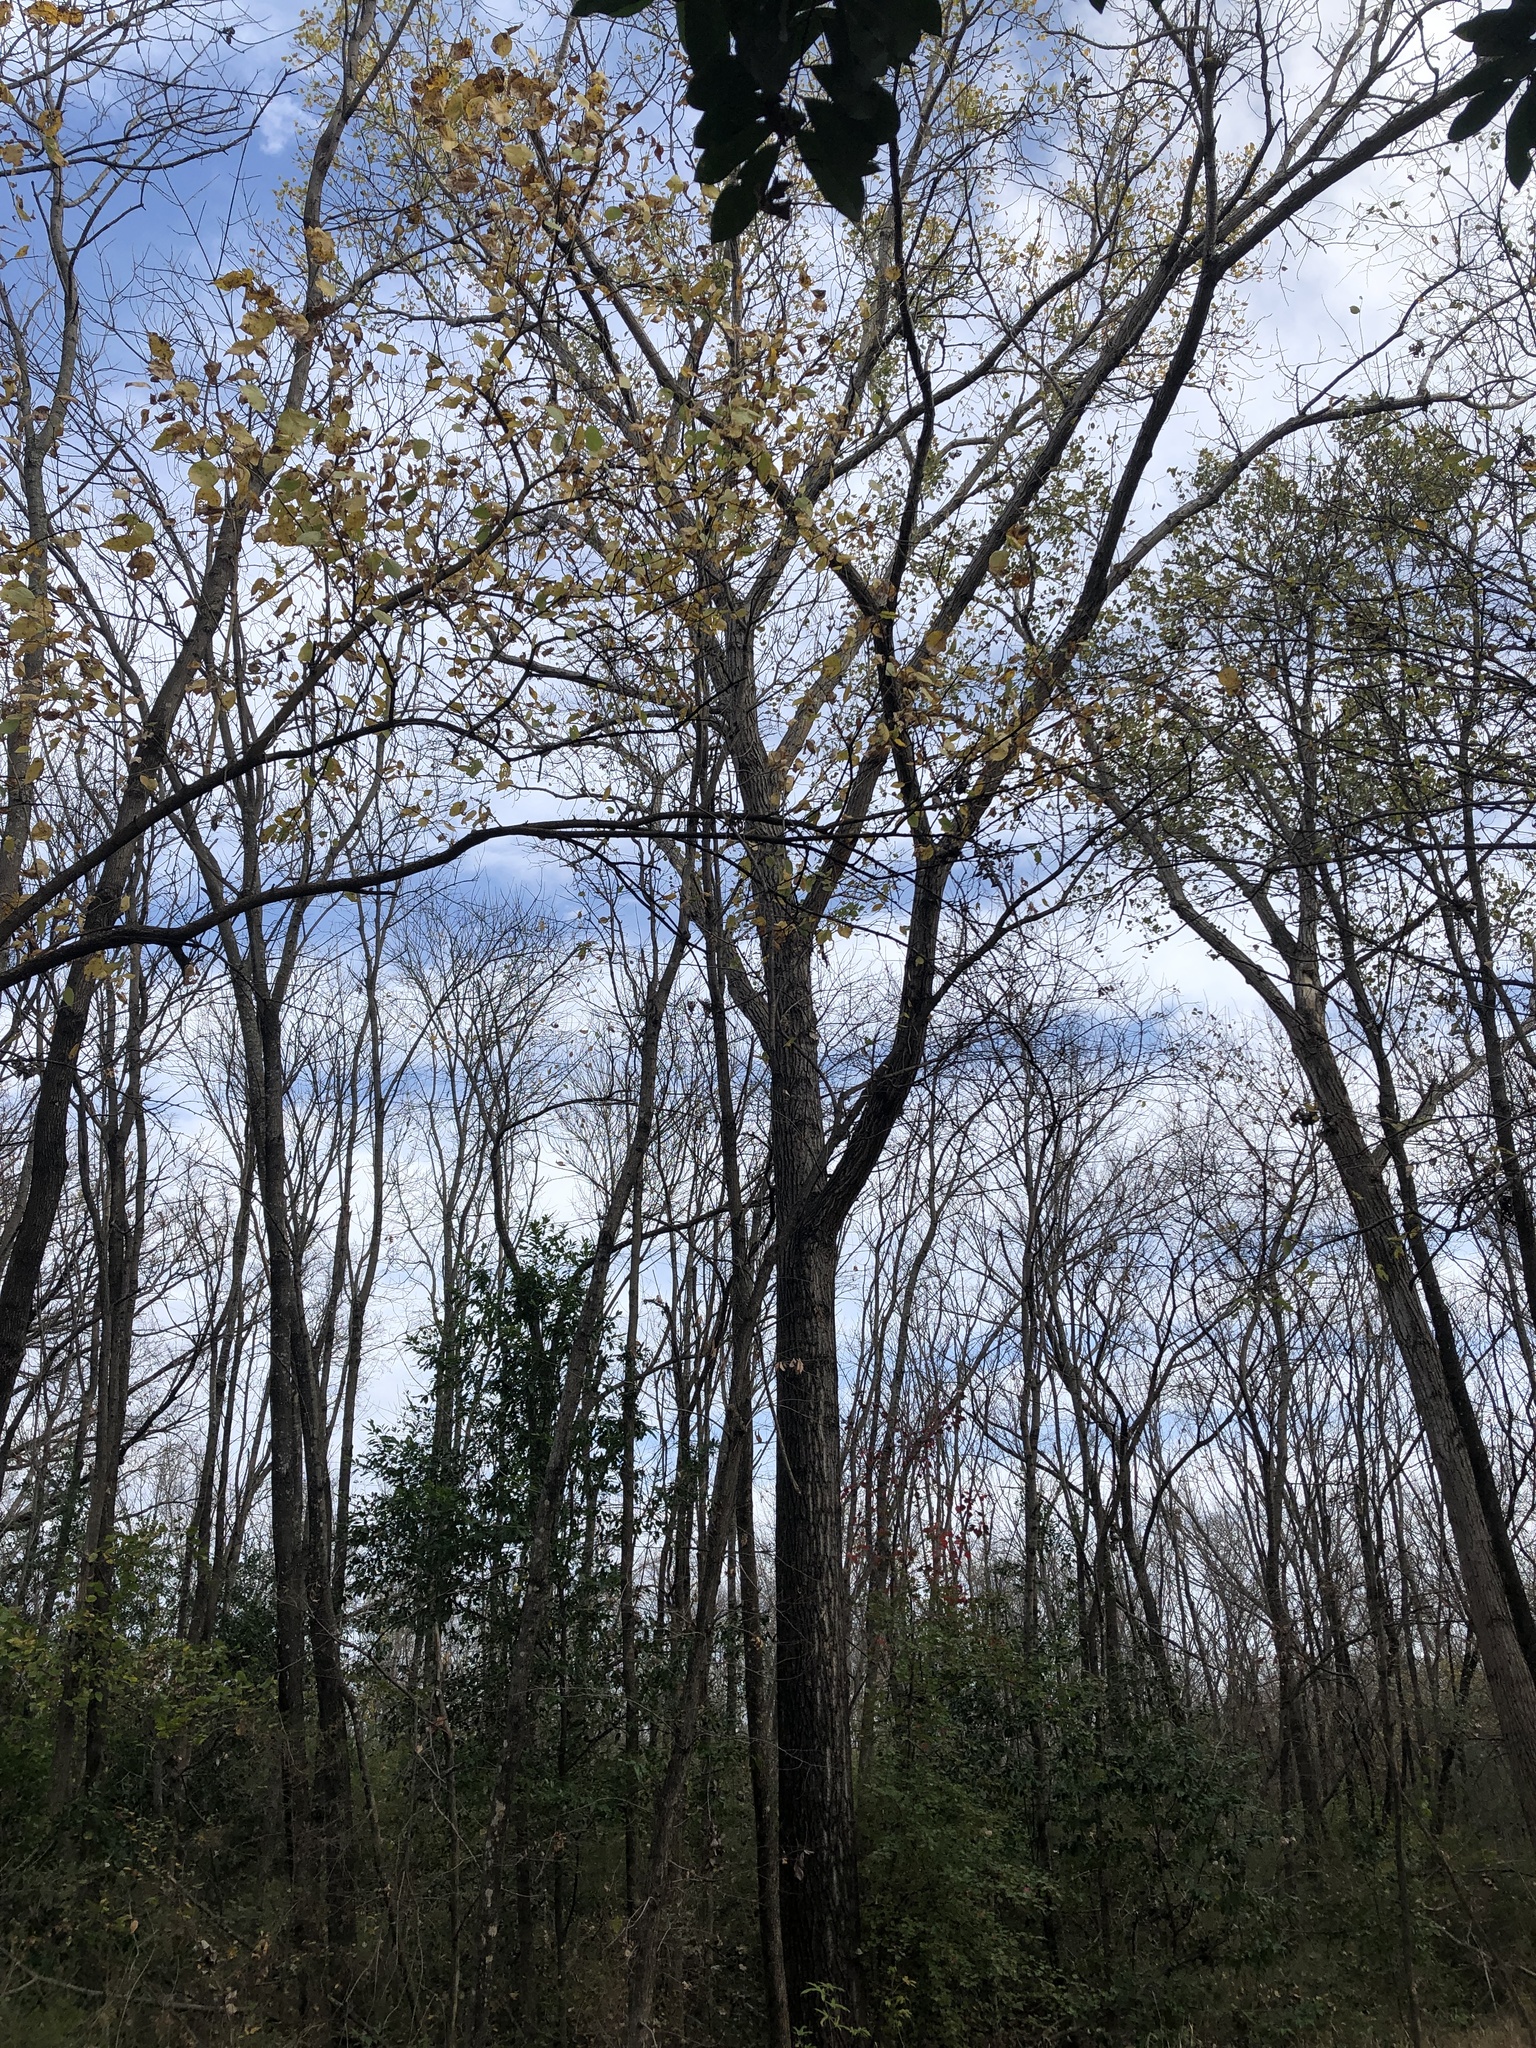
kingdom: Plantae
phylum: Tracheophyta
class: Magnoliopsida
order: Malpighiales
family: Salicaceae
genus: Populus
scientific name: Populus deltoides
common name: Eastern cottonwood
